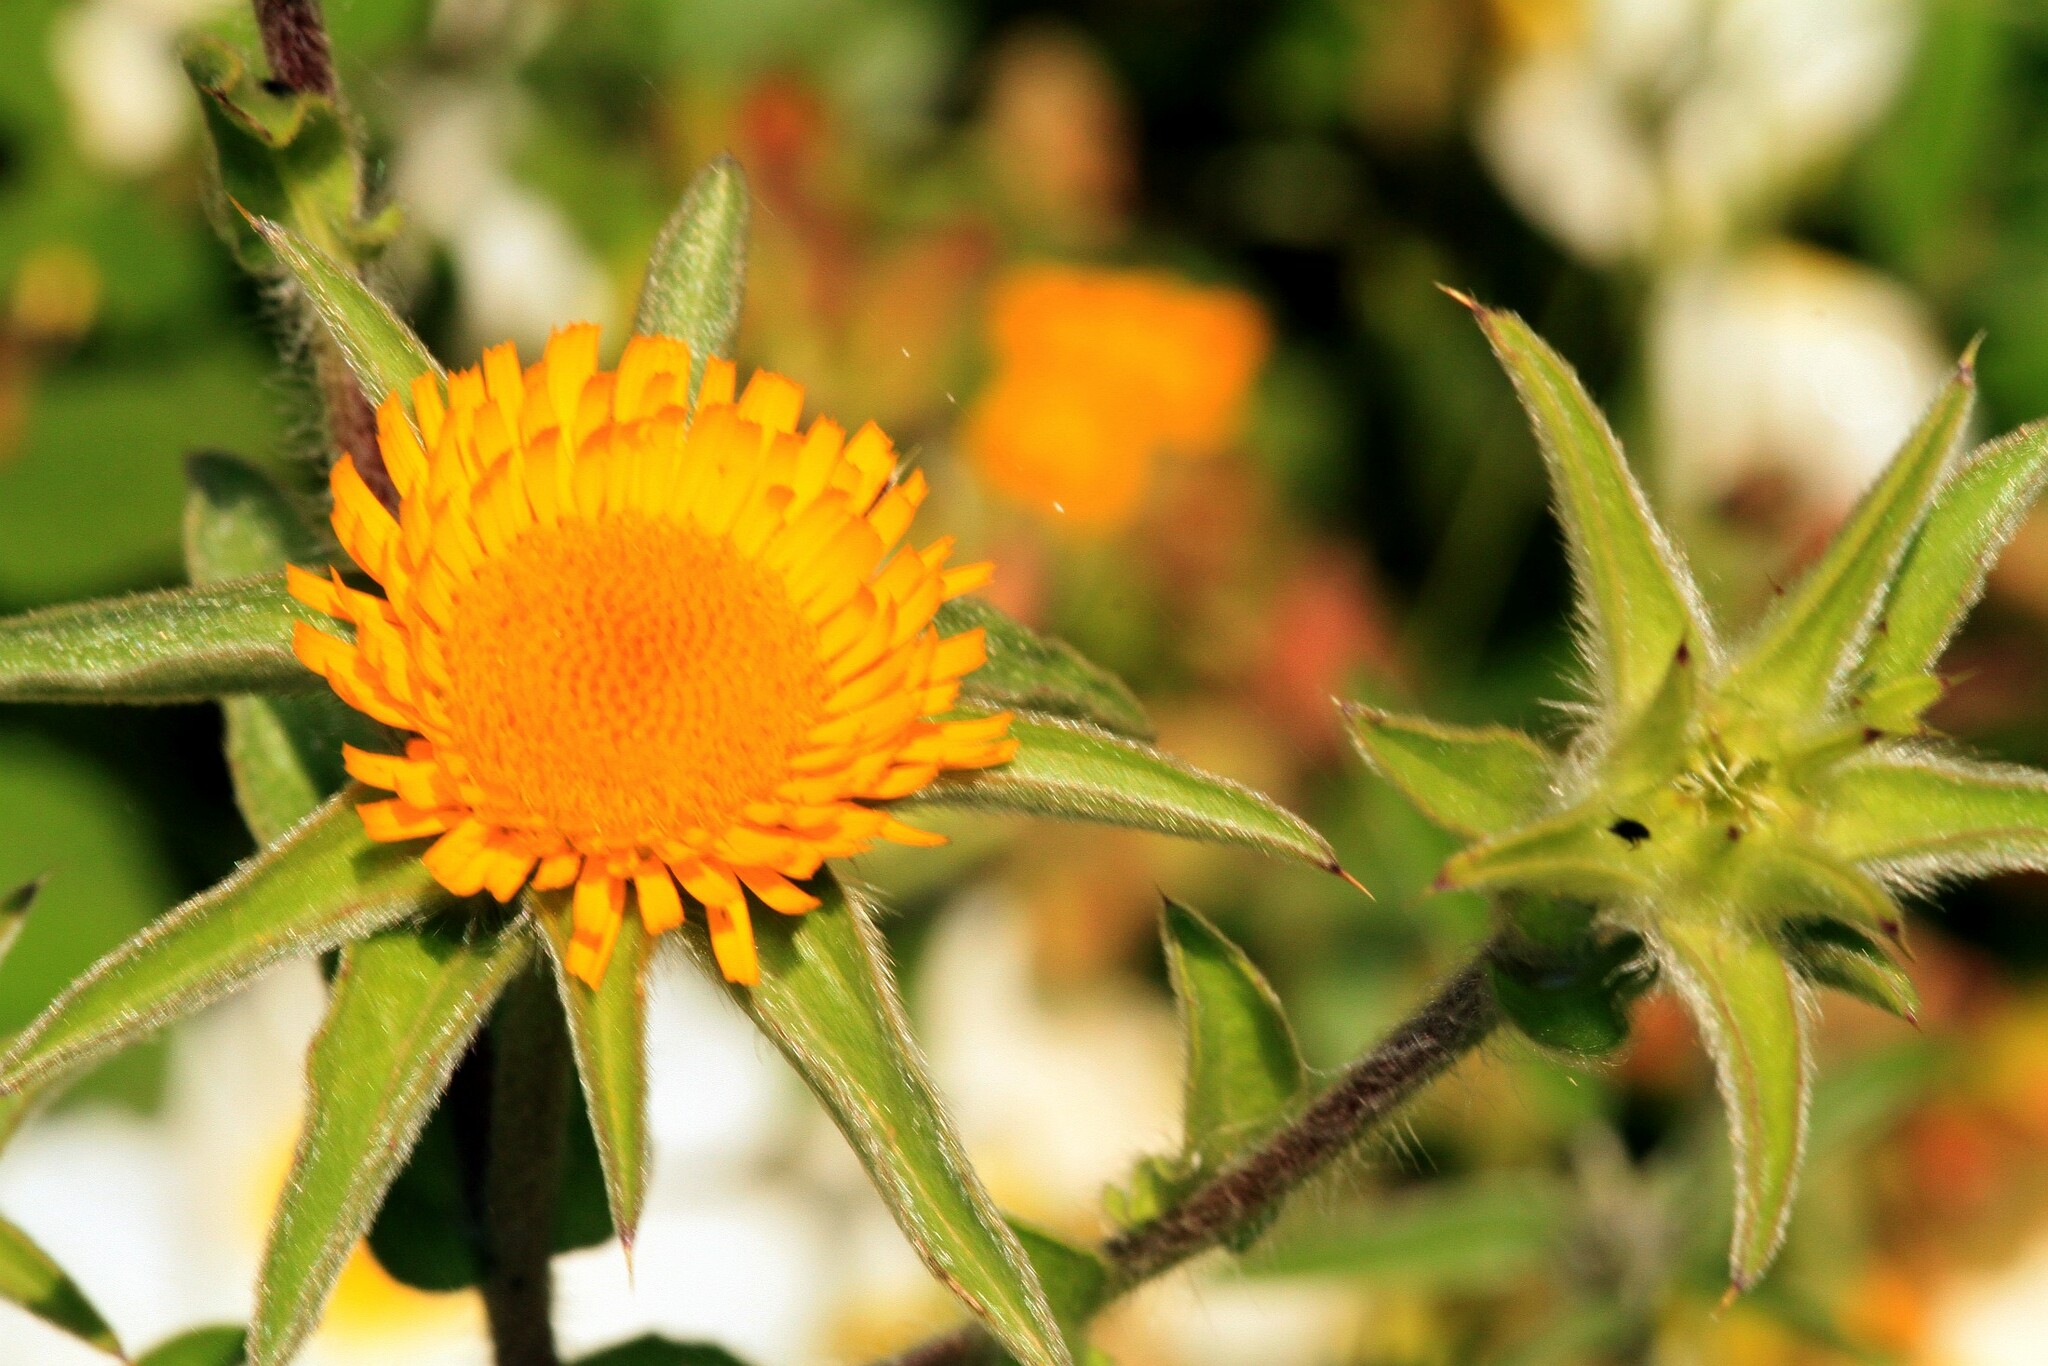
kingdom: Plantae
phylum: Tracheophyta
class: Magnoliopsida
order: Asterales
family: Asteraceae
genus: Pallenis
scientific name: Pallenis spinosa
